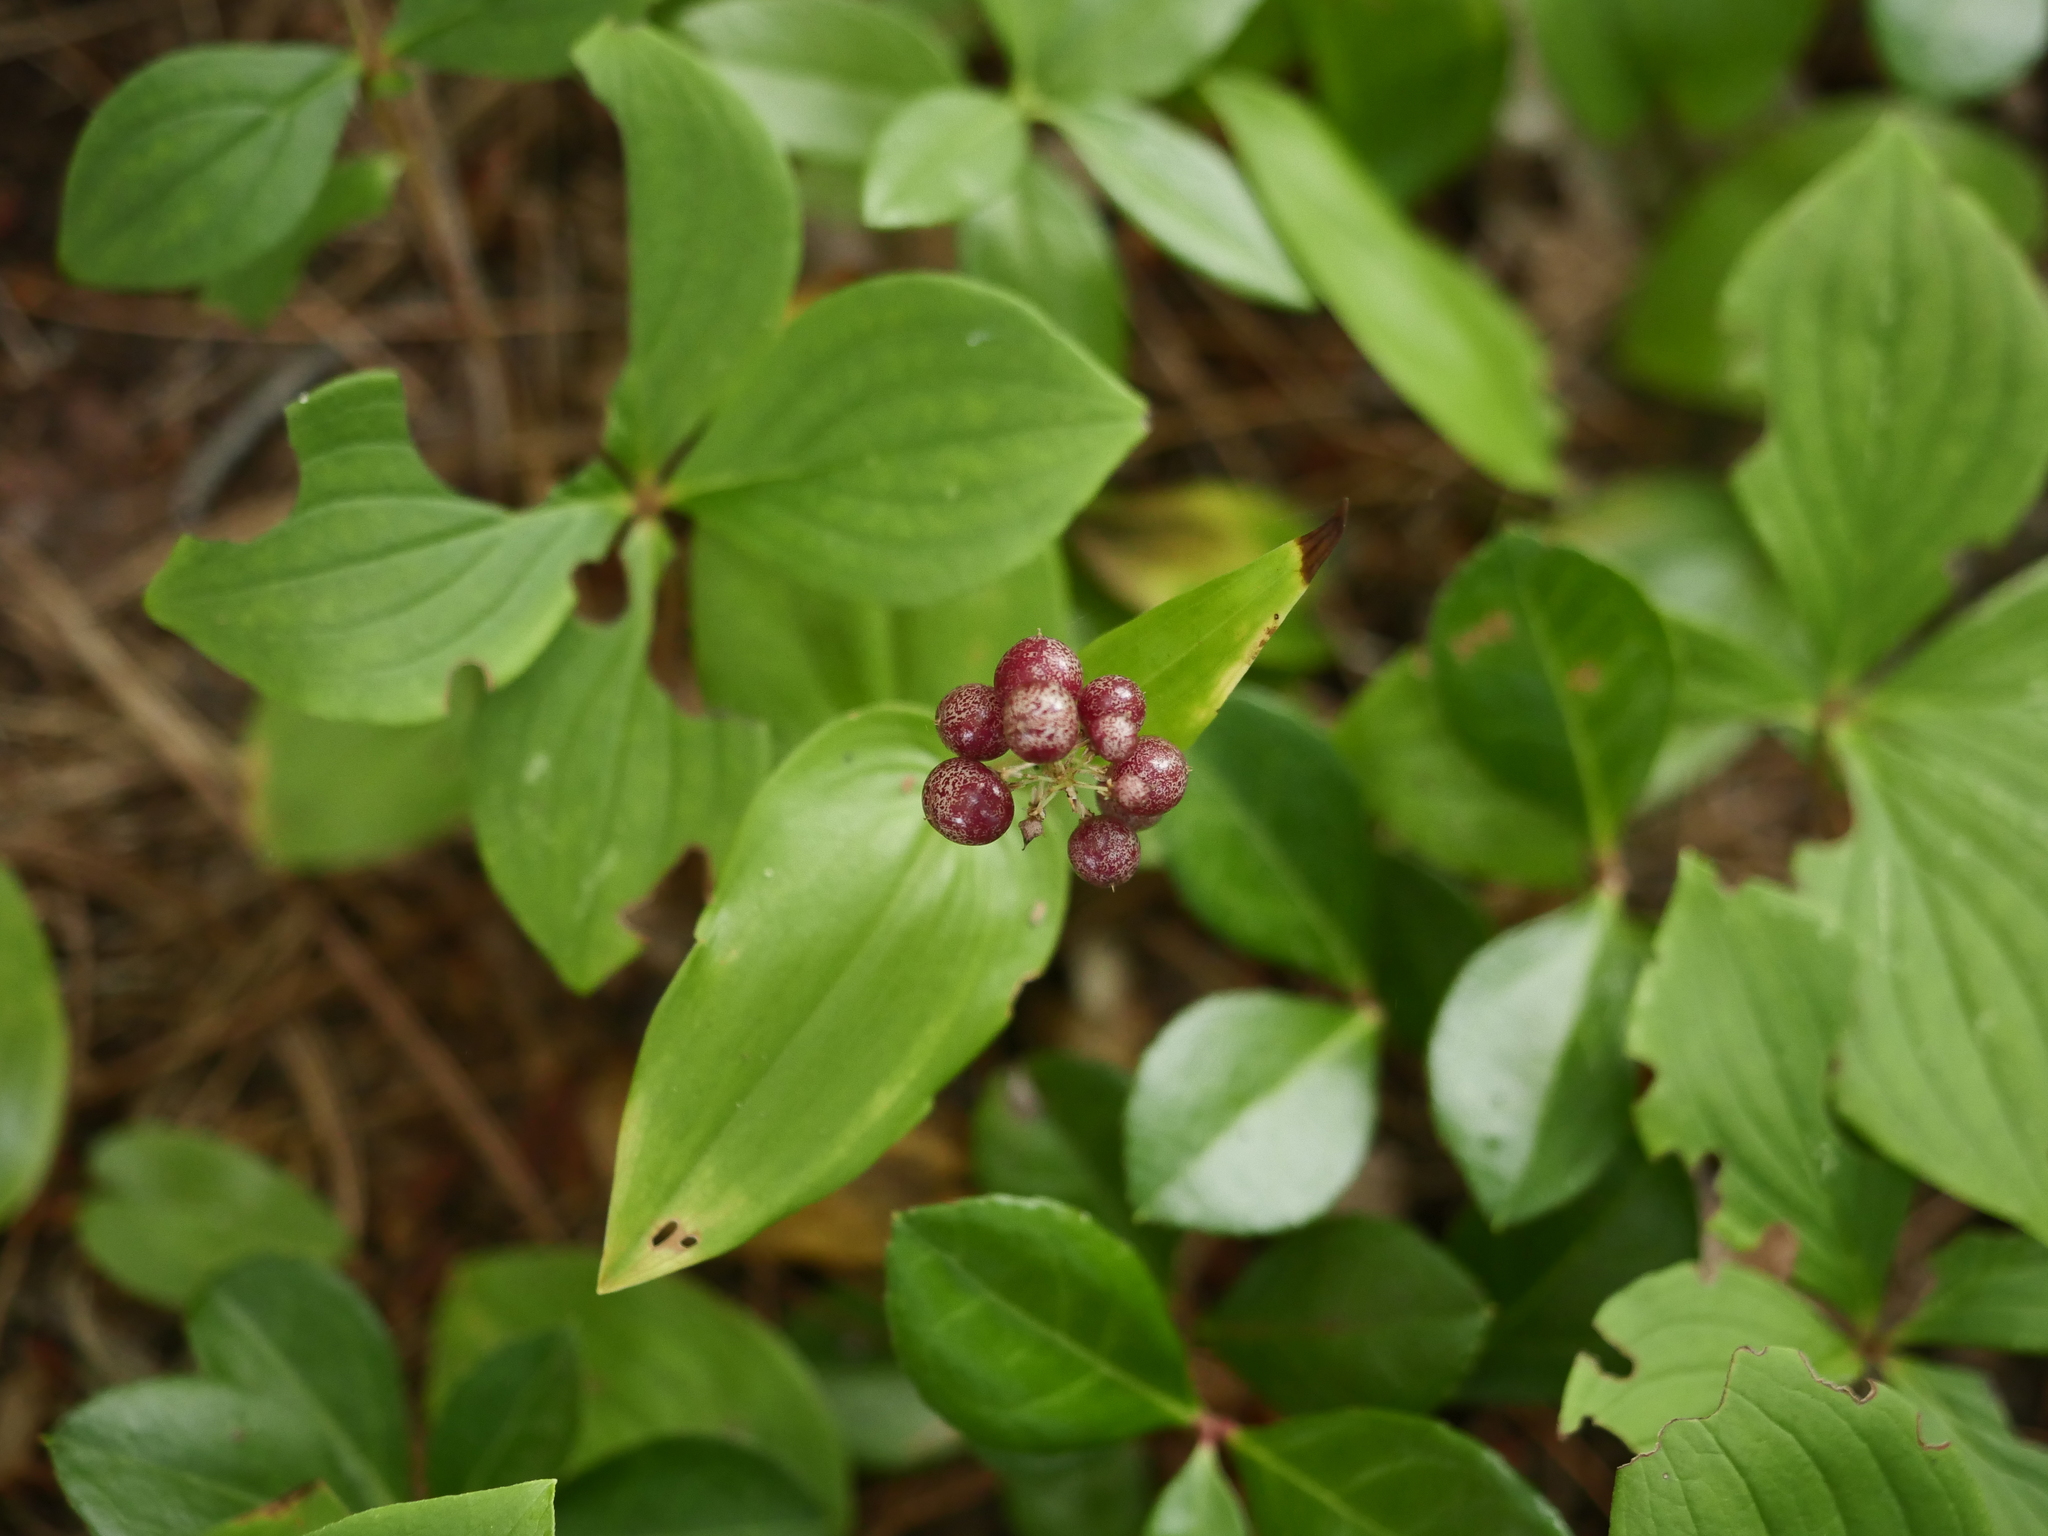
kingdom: Plantae
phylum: Tracheophyta
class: Liliopsida
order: Asparagales
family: Asparagaceae
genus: Maianthemum
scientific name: Maianthemum canadense
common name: False lily-of-the-valley
